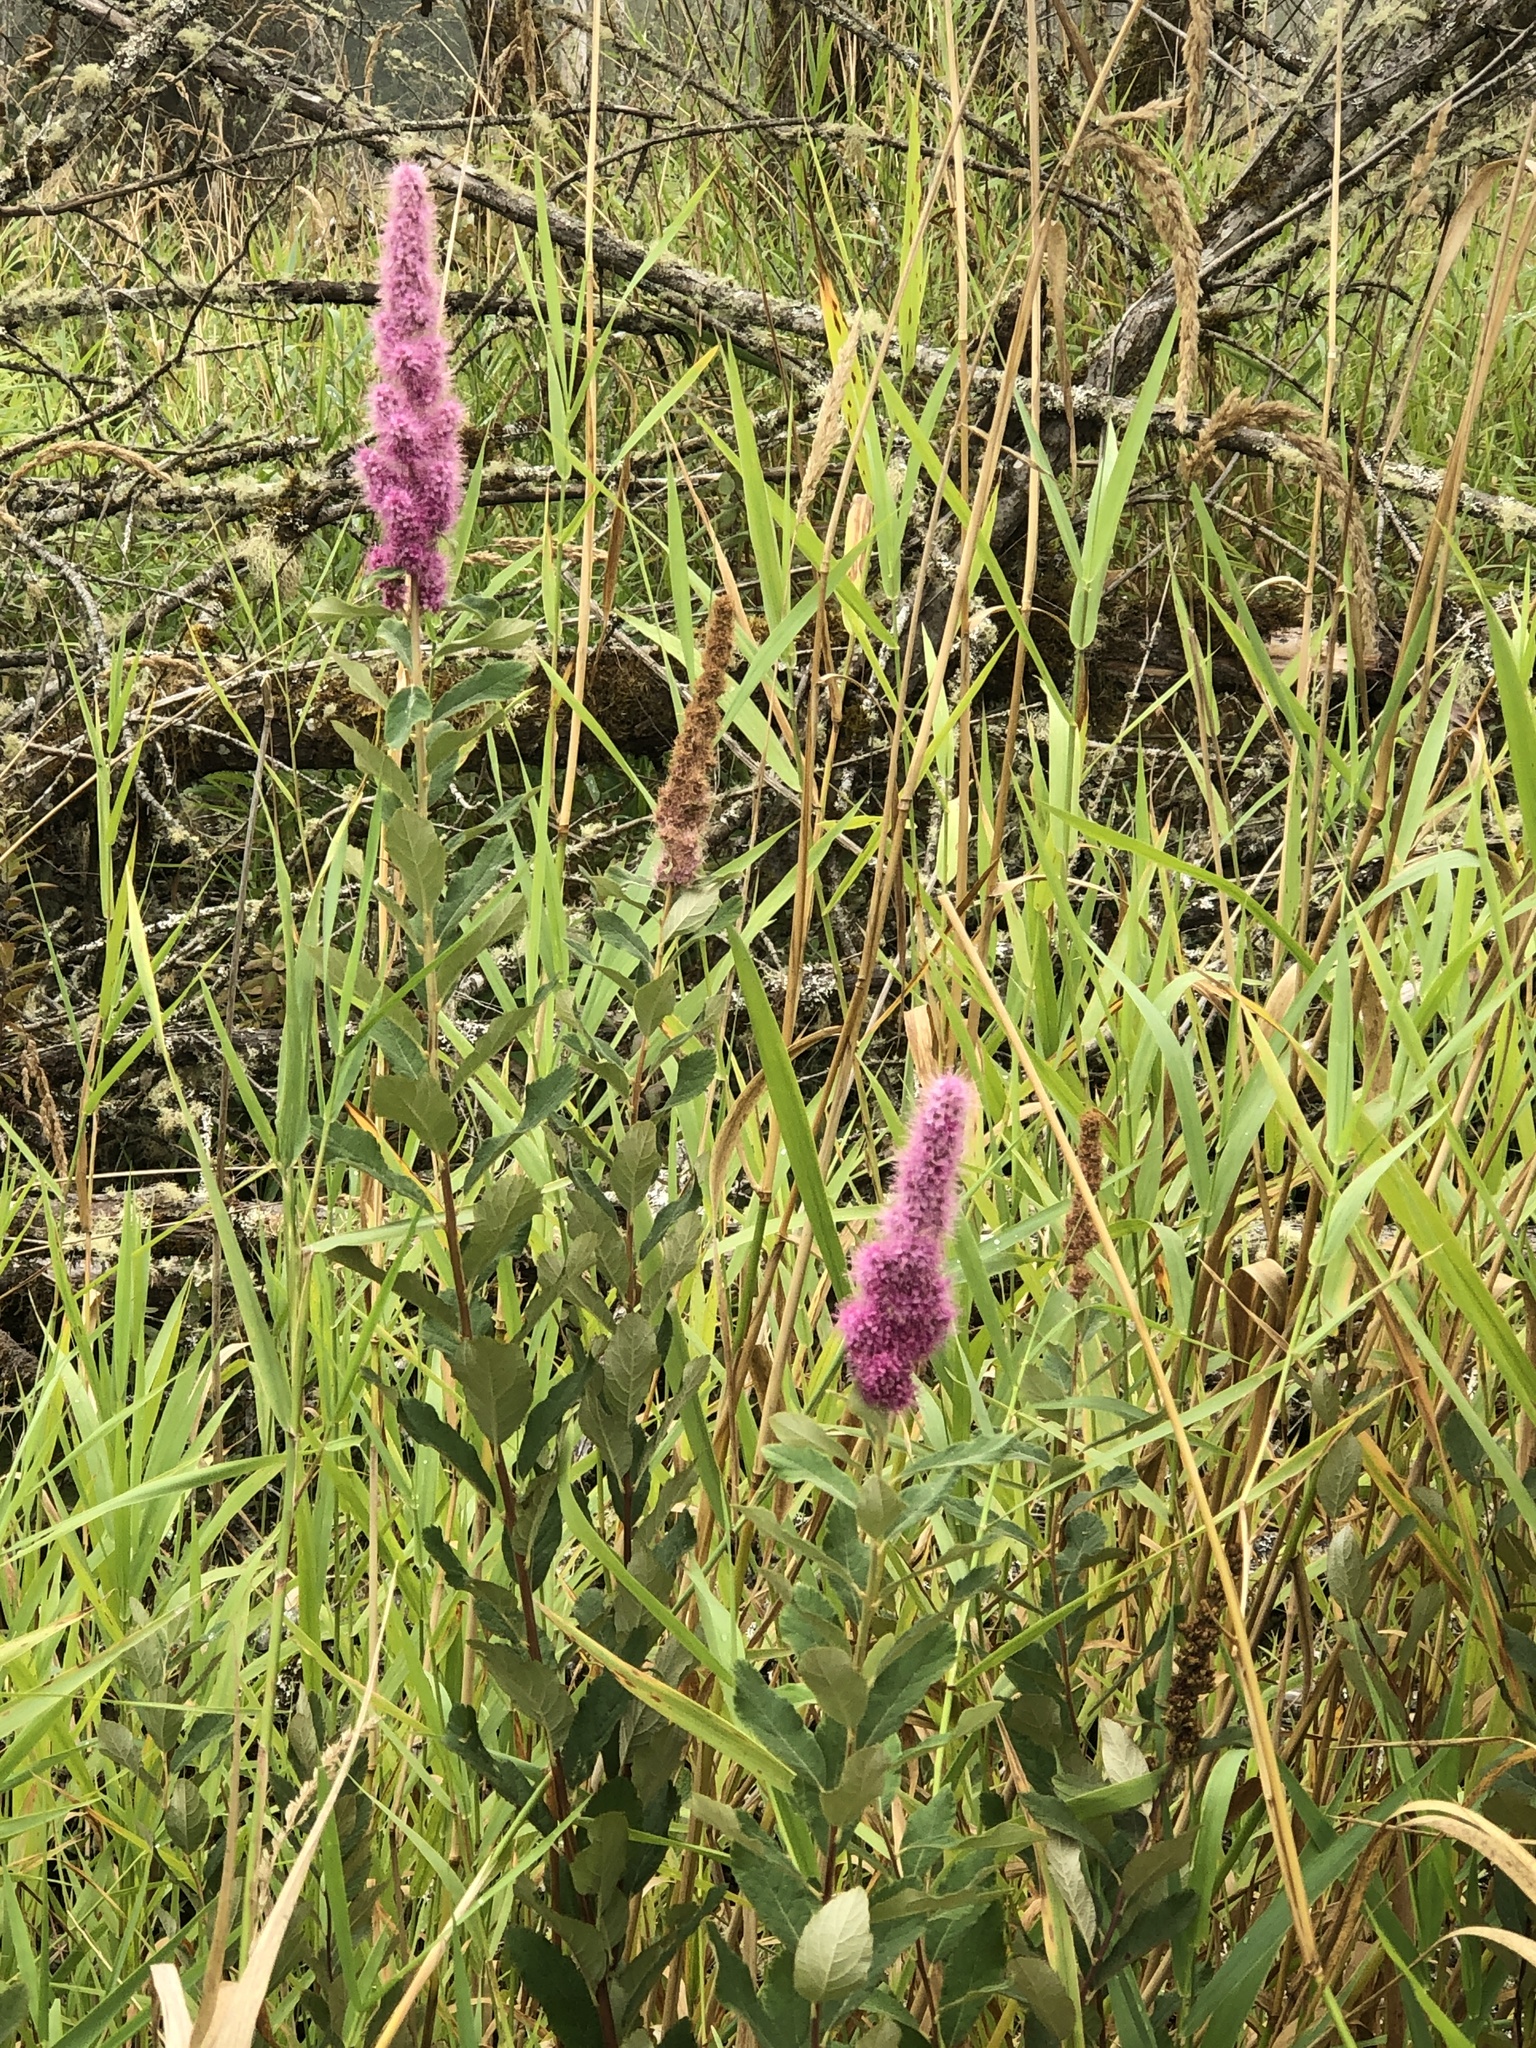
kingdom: Plantae
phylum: Tracheophyta
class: Magnoliopsida
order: Rosales
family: Rosaceae
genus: Spiraea
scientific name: Spiraea douglasii
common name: Steeplebush
